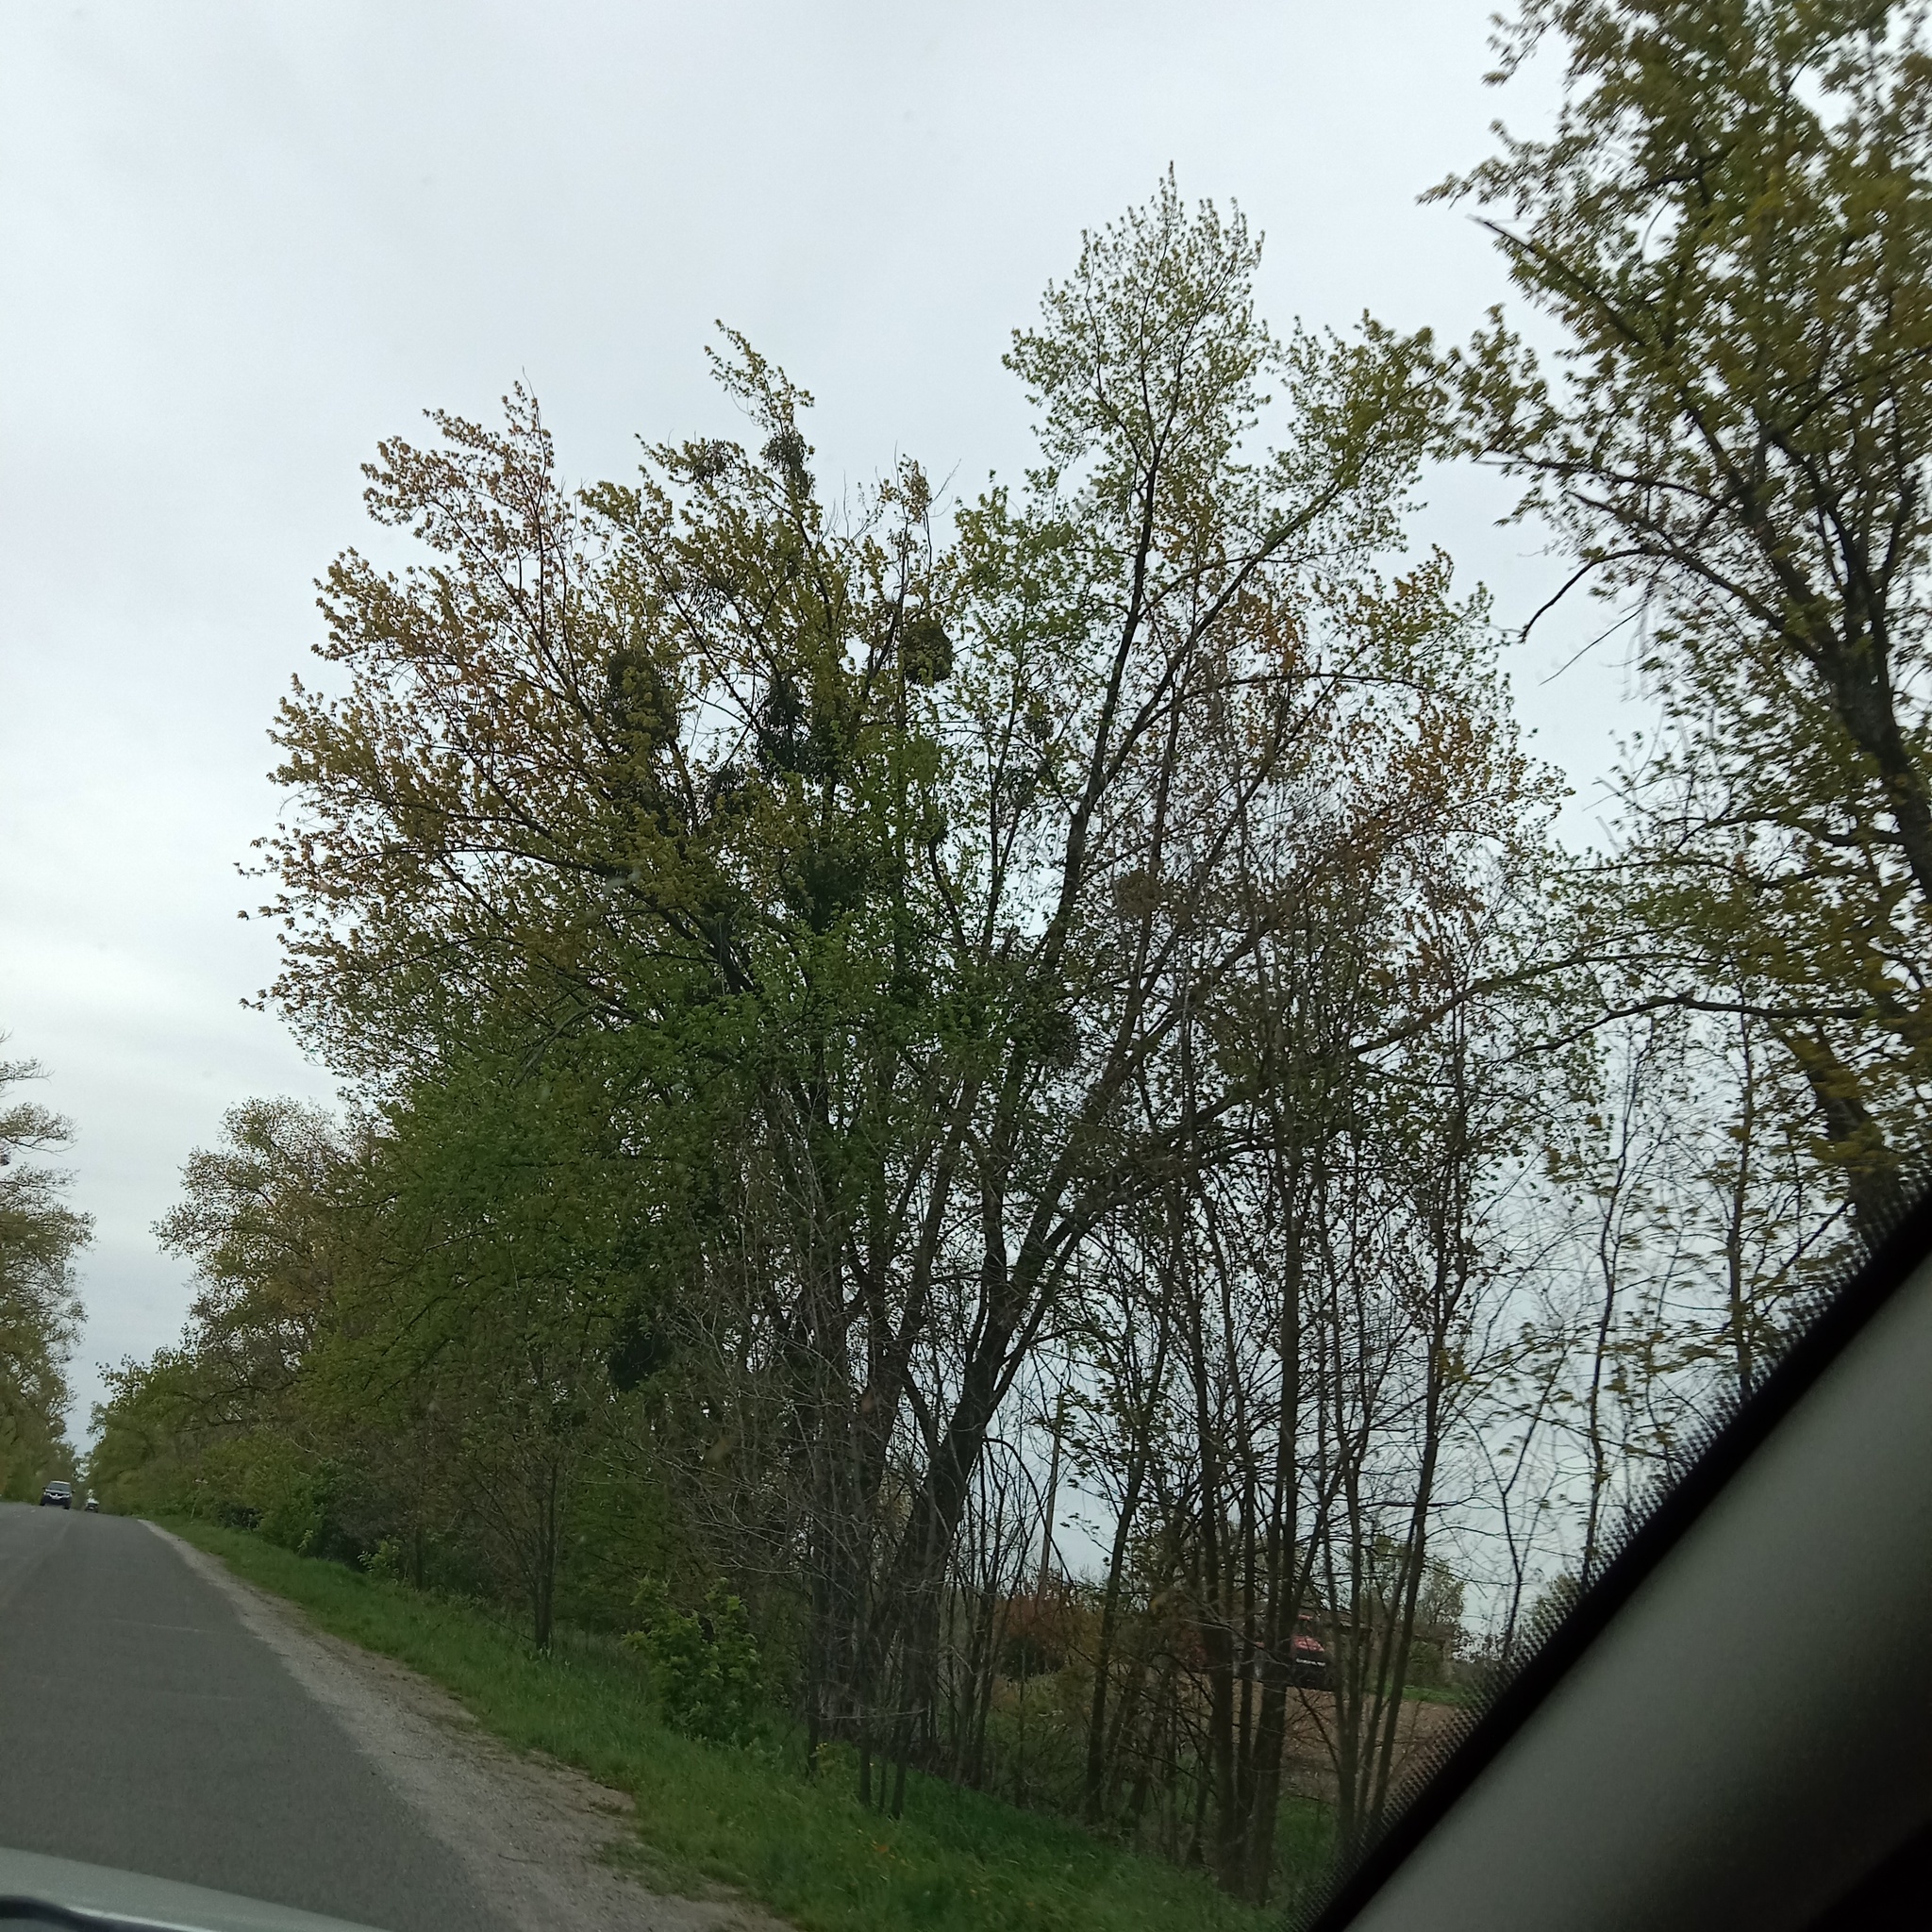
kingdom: Plantae
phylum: Tracheophyta
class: Magnoliopsida
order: Santalales
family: Viscaceae
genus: Viscum
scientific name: Viscum album
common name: Mistletoe
